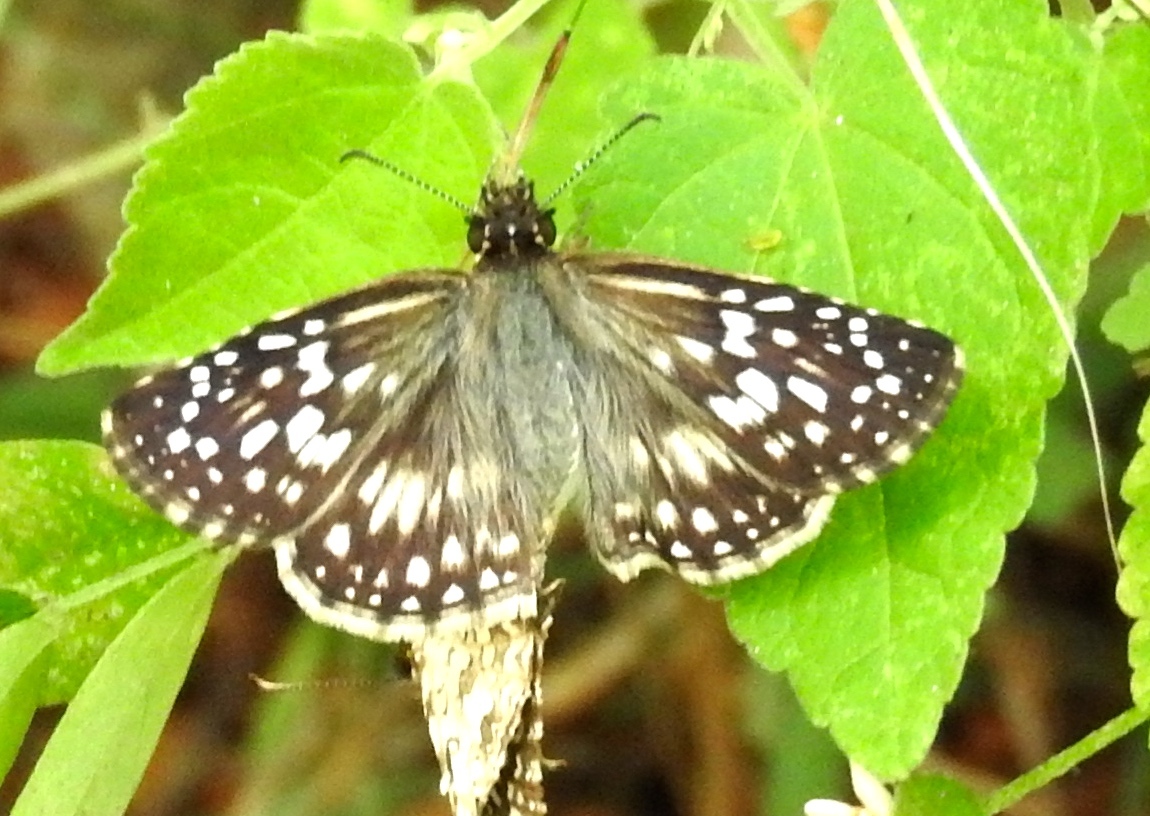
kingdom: Animalia
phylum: Arthropoda
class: Insecta
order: Lepidoptera
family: Hesperiidae
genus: Burnsius
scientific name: Burnsius
